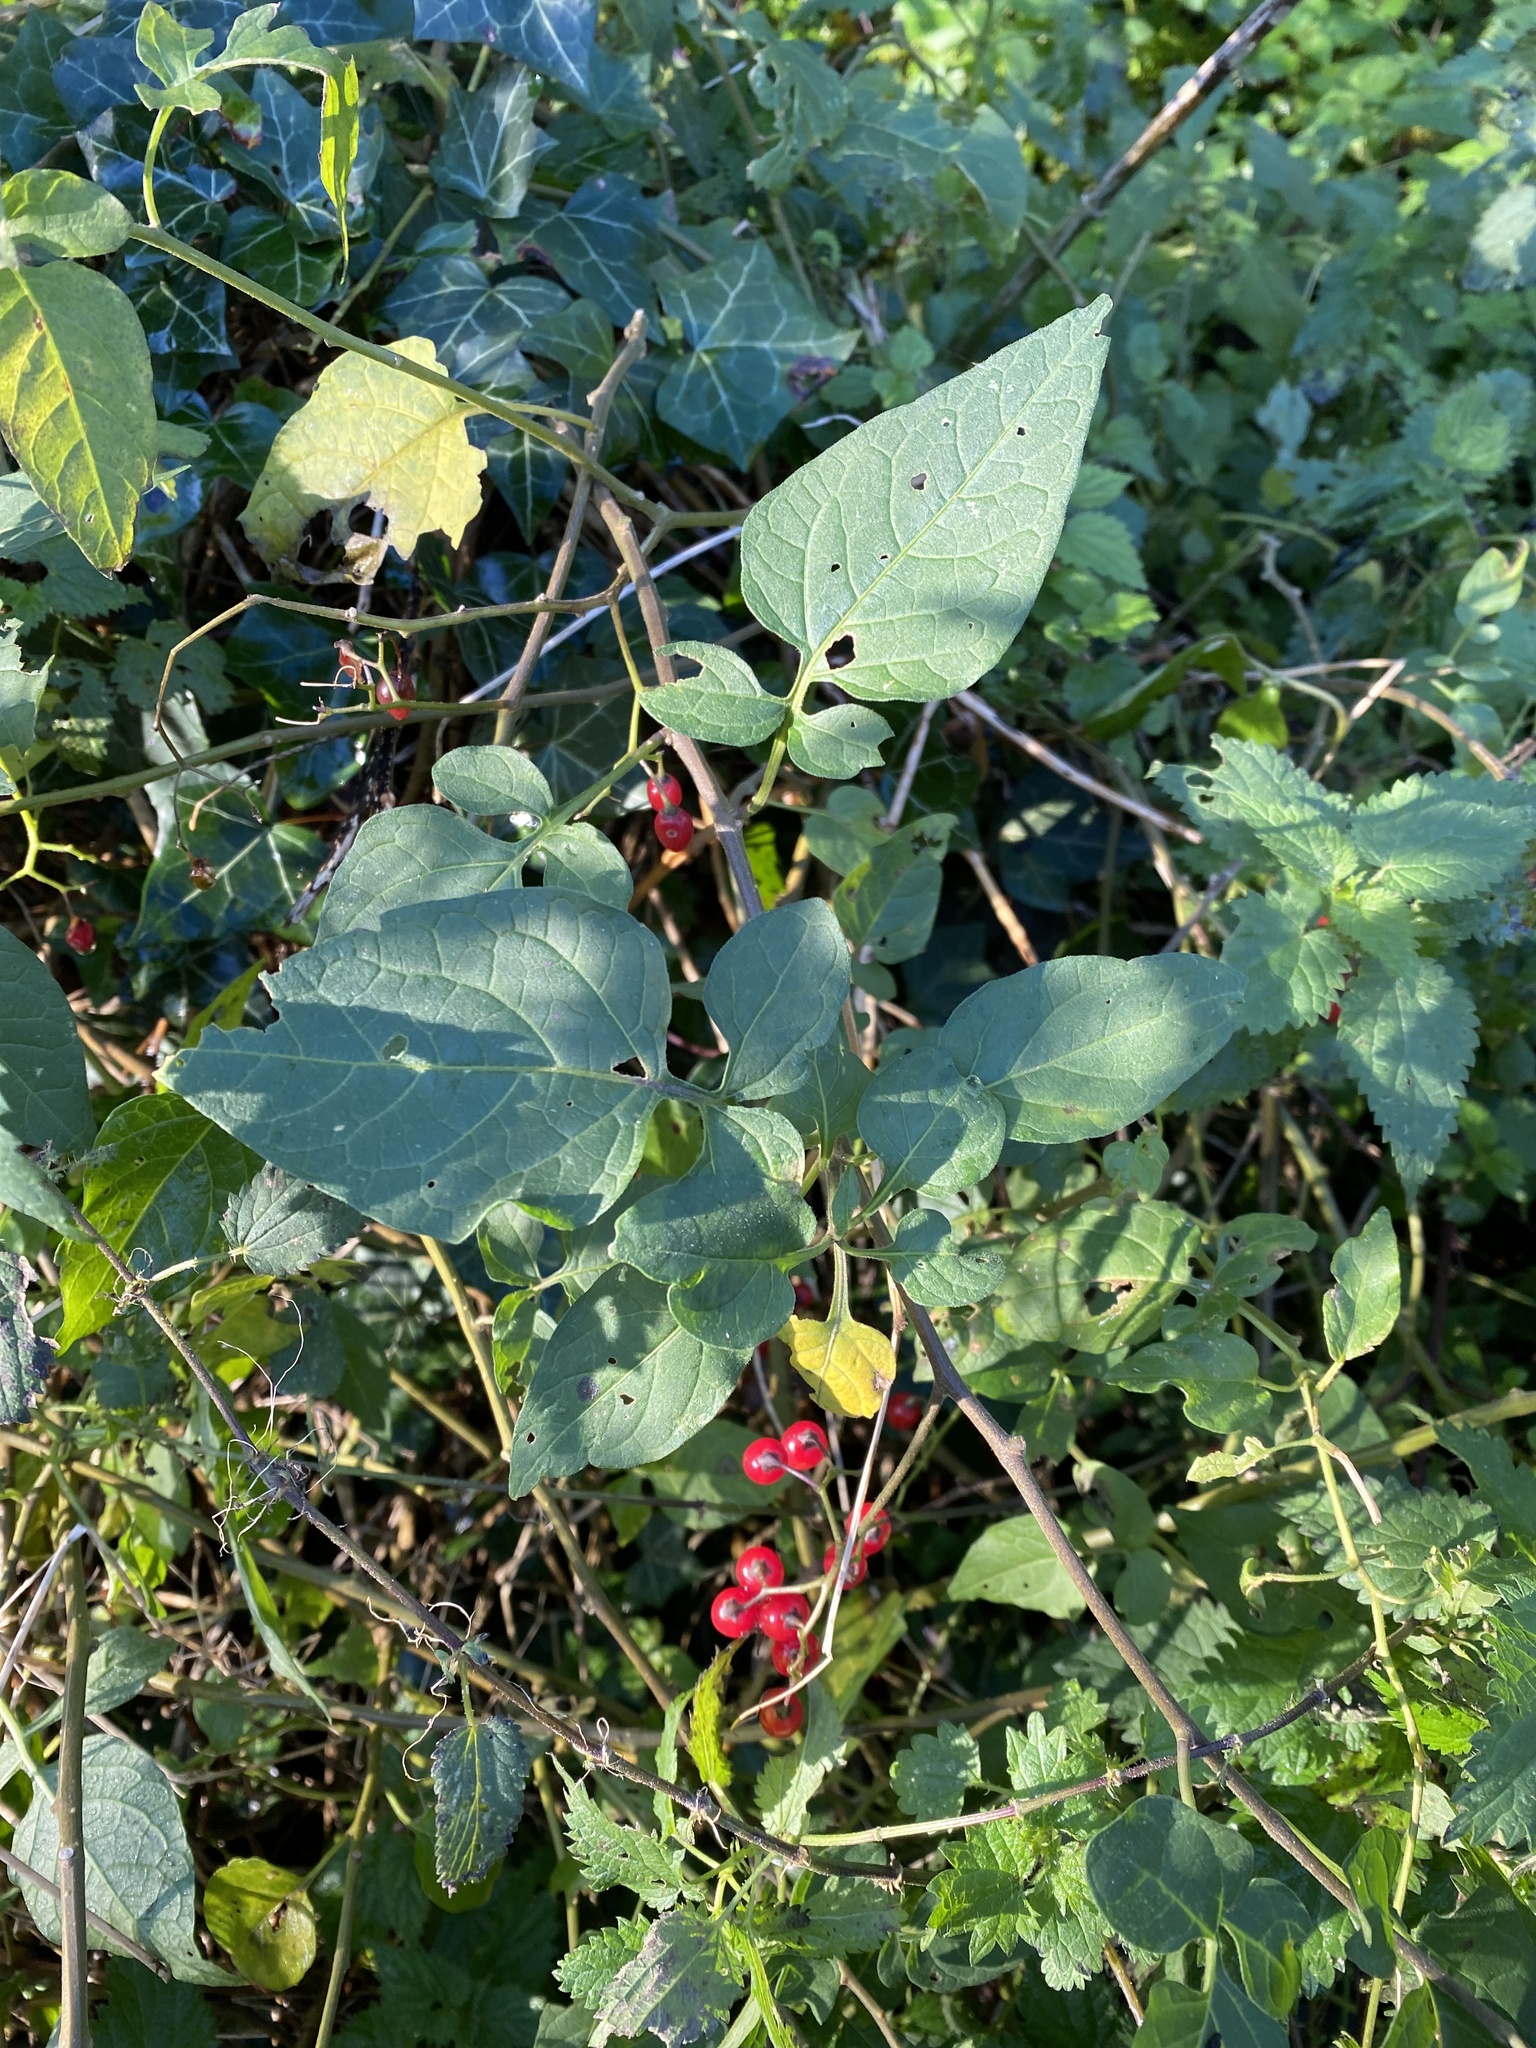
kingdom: Plantae
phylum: Tracheophyta
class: Magnoliopsida
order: Solanales
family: Solanaceae
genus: Solanum
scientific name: Solanum dulcamara
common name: Climbing nightshade
